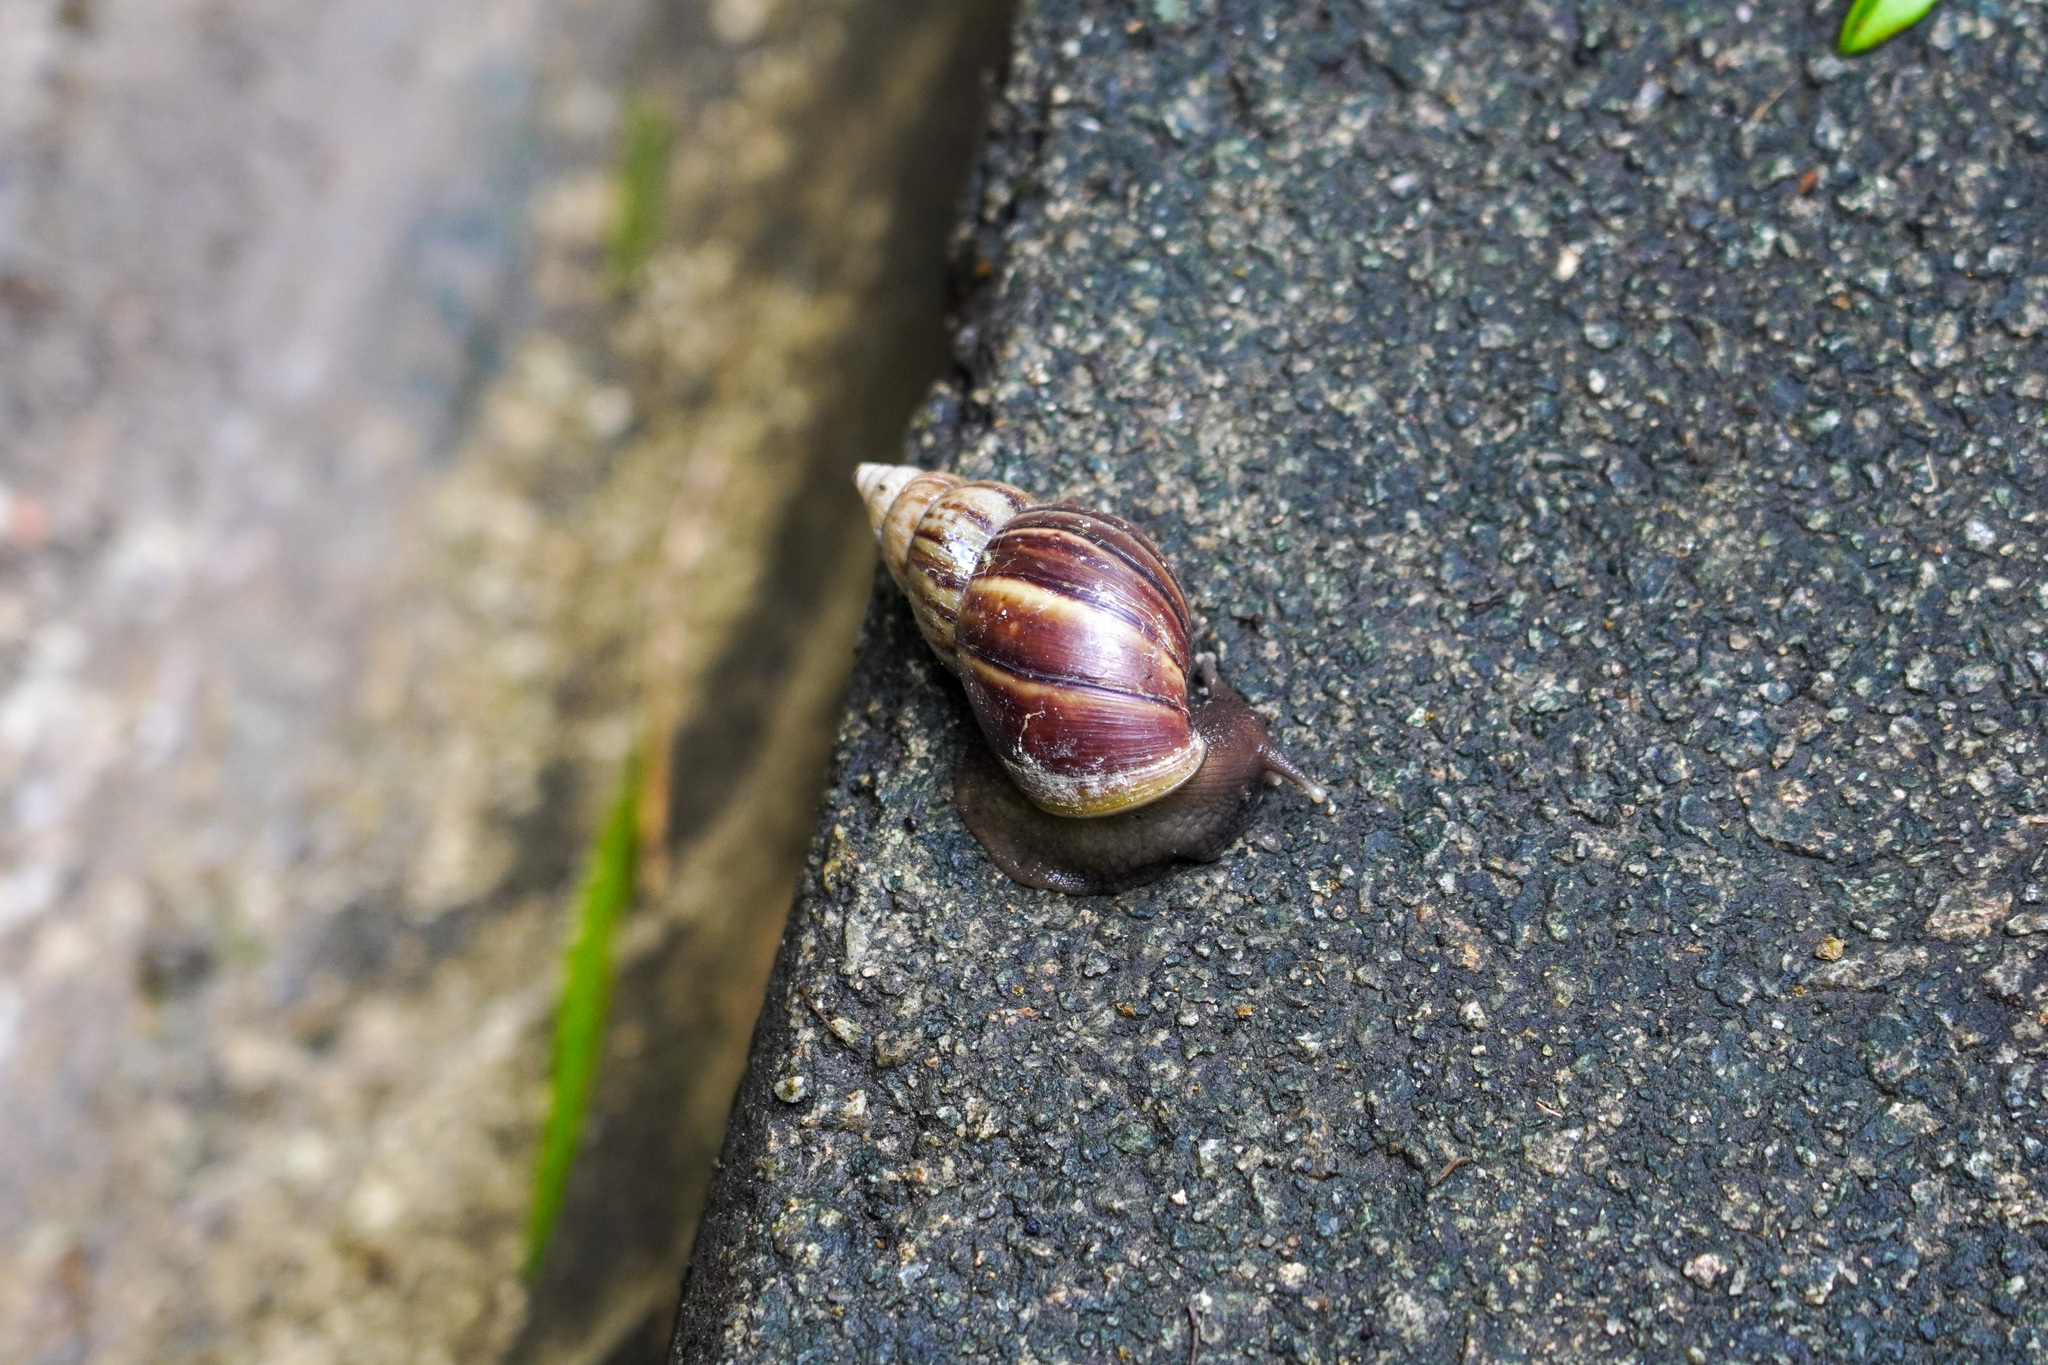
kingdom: Animalia
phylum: Mollusca
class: Gastropoda
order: Stylommatophora
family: Achatinidae
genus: Lissachatina
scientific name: Lissachatina fulica
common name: Giant african snail
